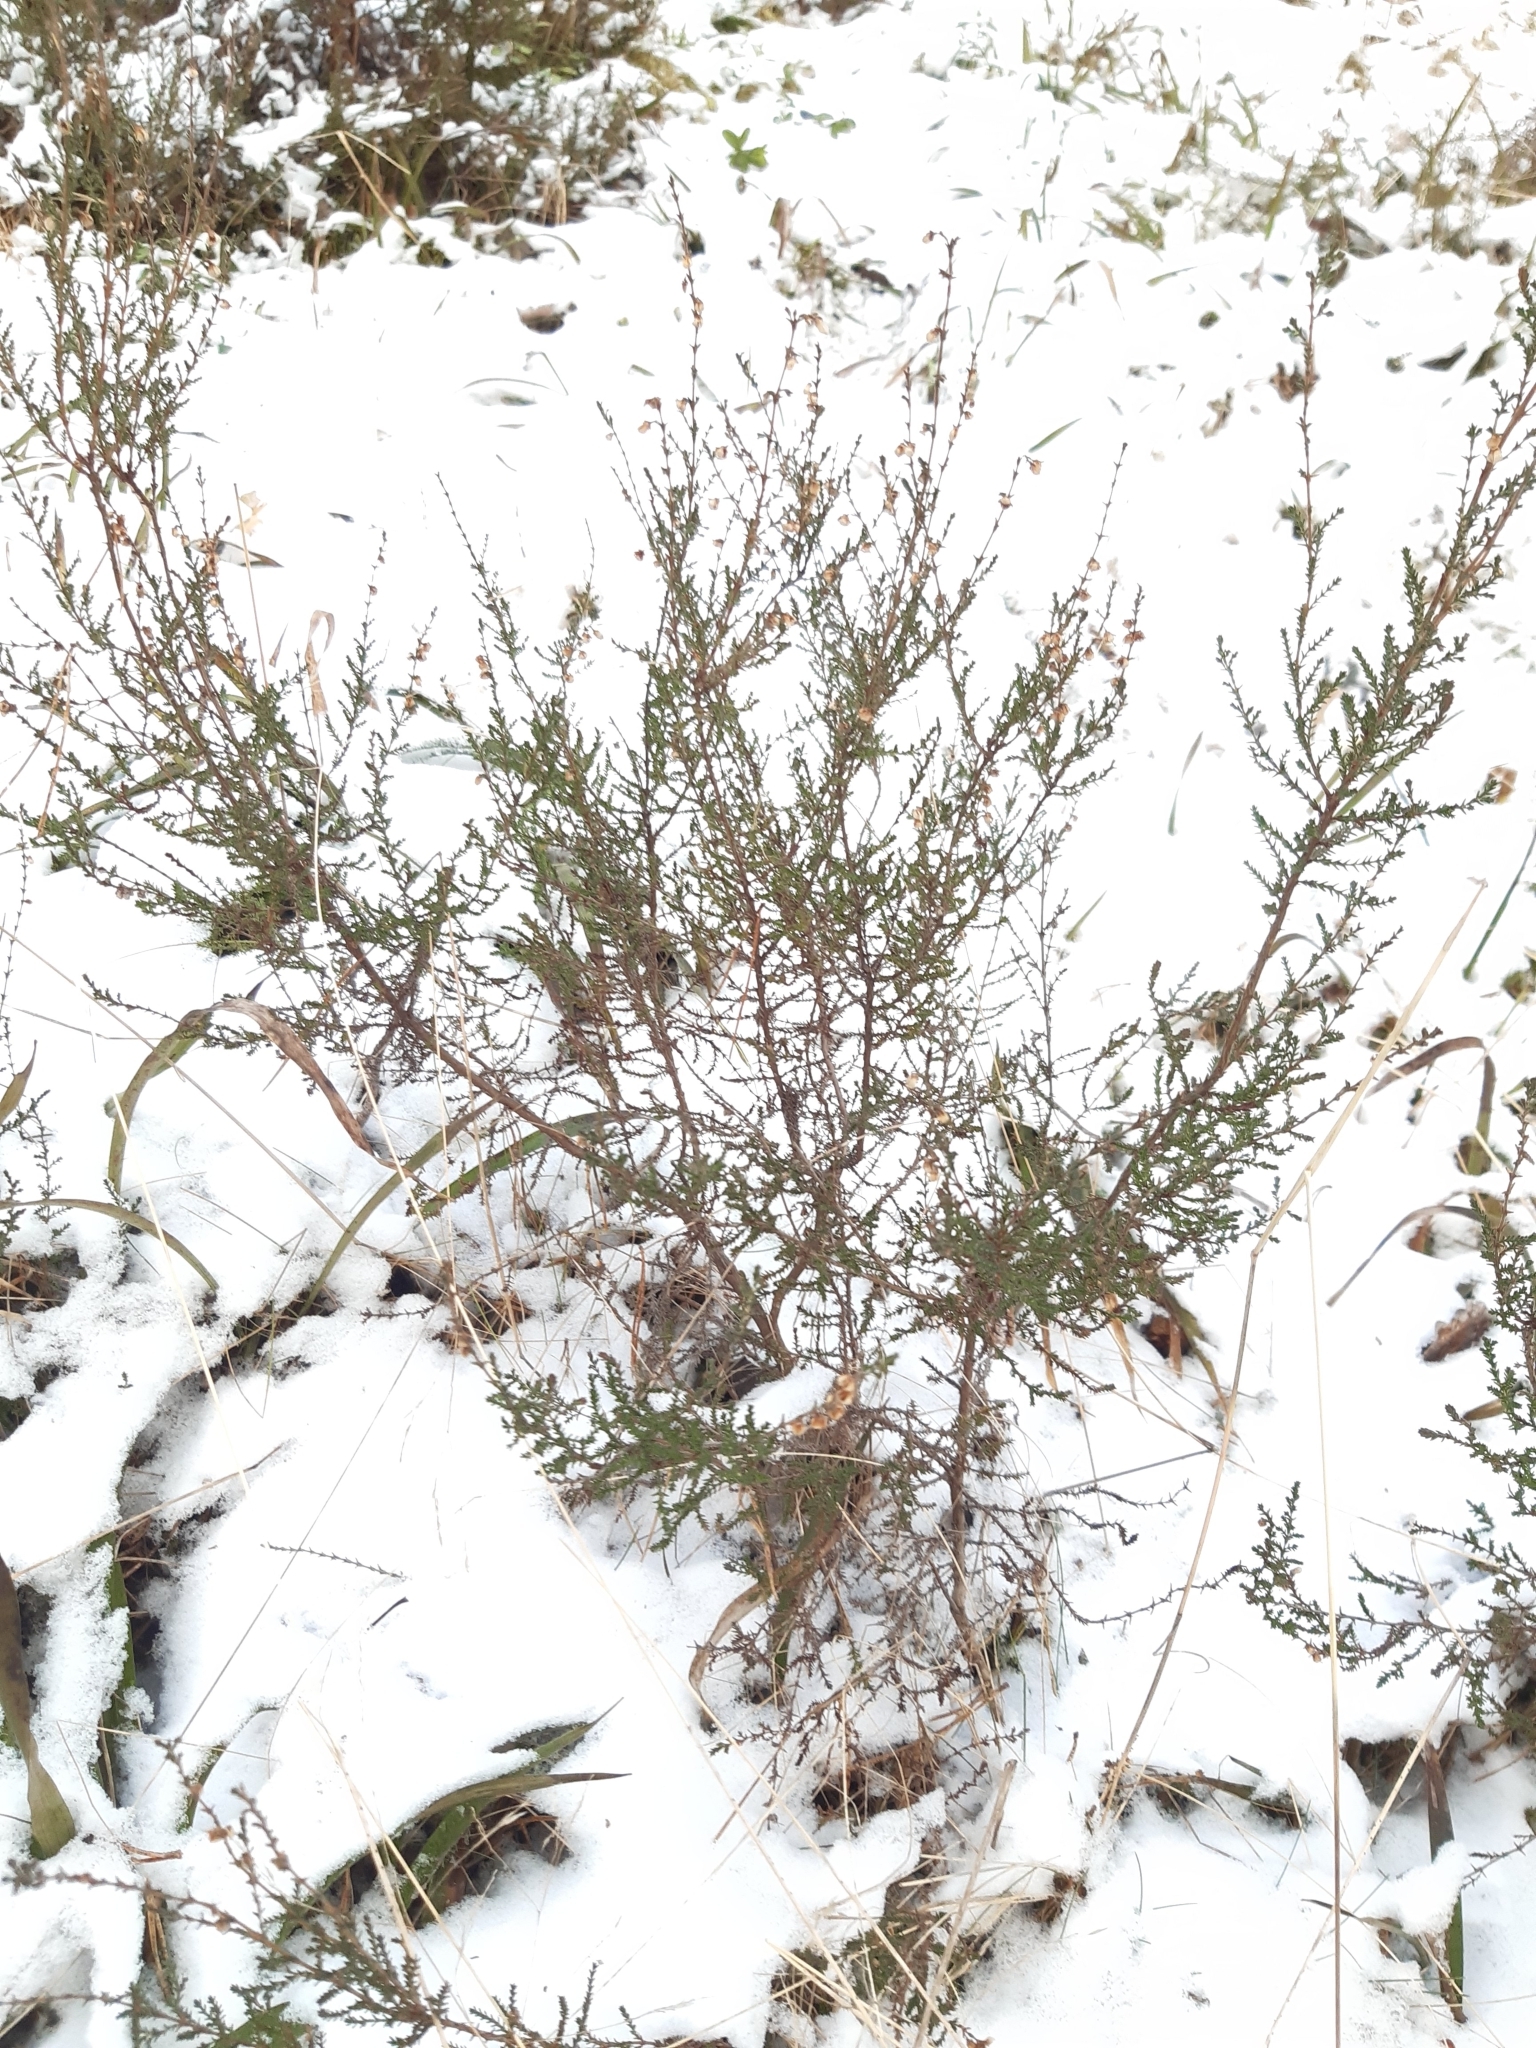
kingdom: Plantae
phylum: Tracheophyta
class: Magnoliopsida
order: Ericales
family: Ericaceae
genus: Calluna
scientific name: Calluna vulgaris
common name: Heather
